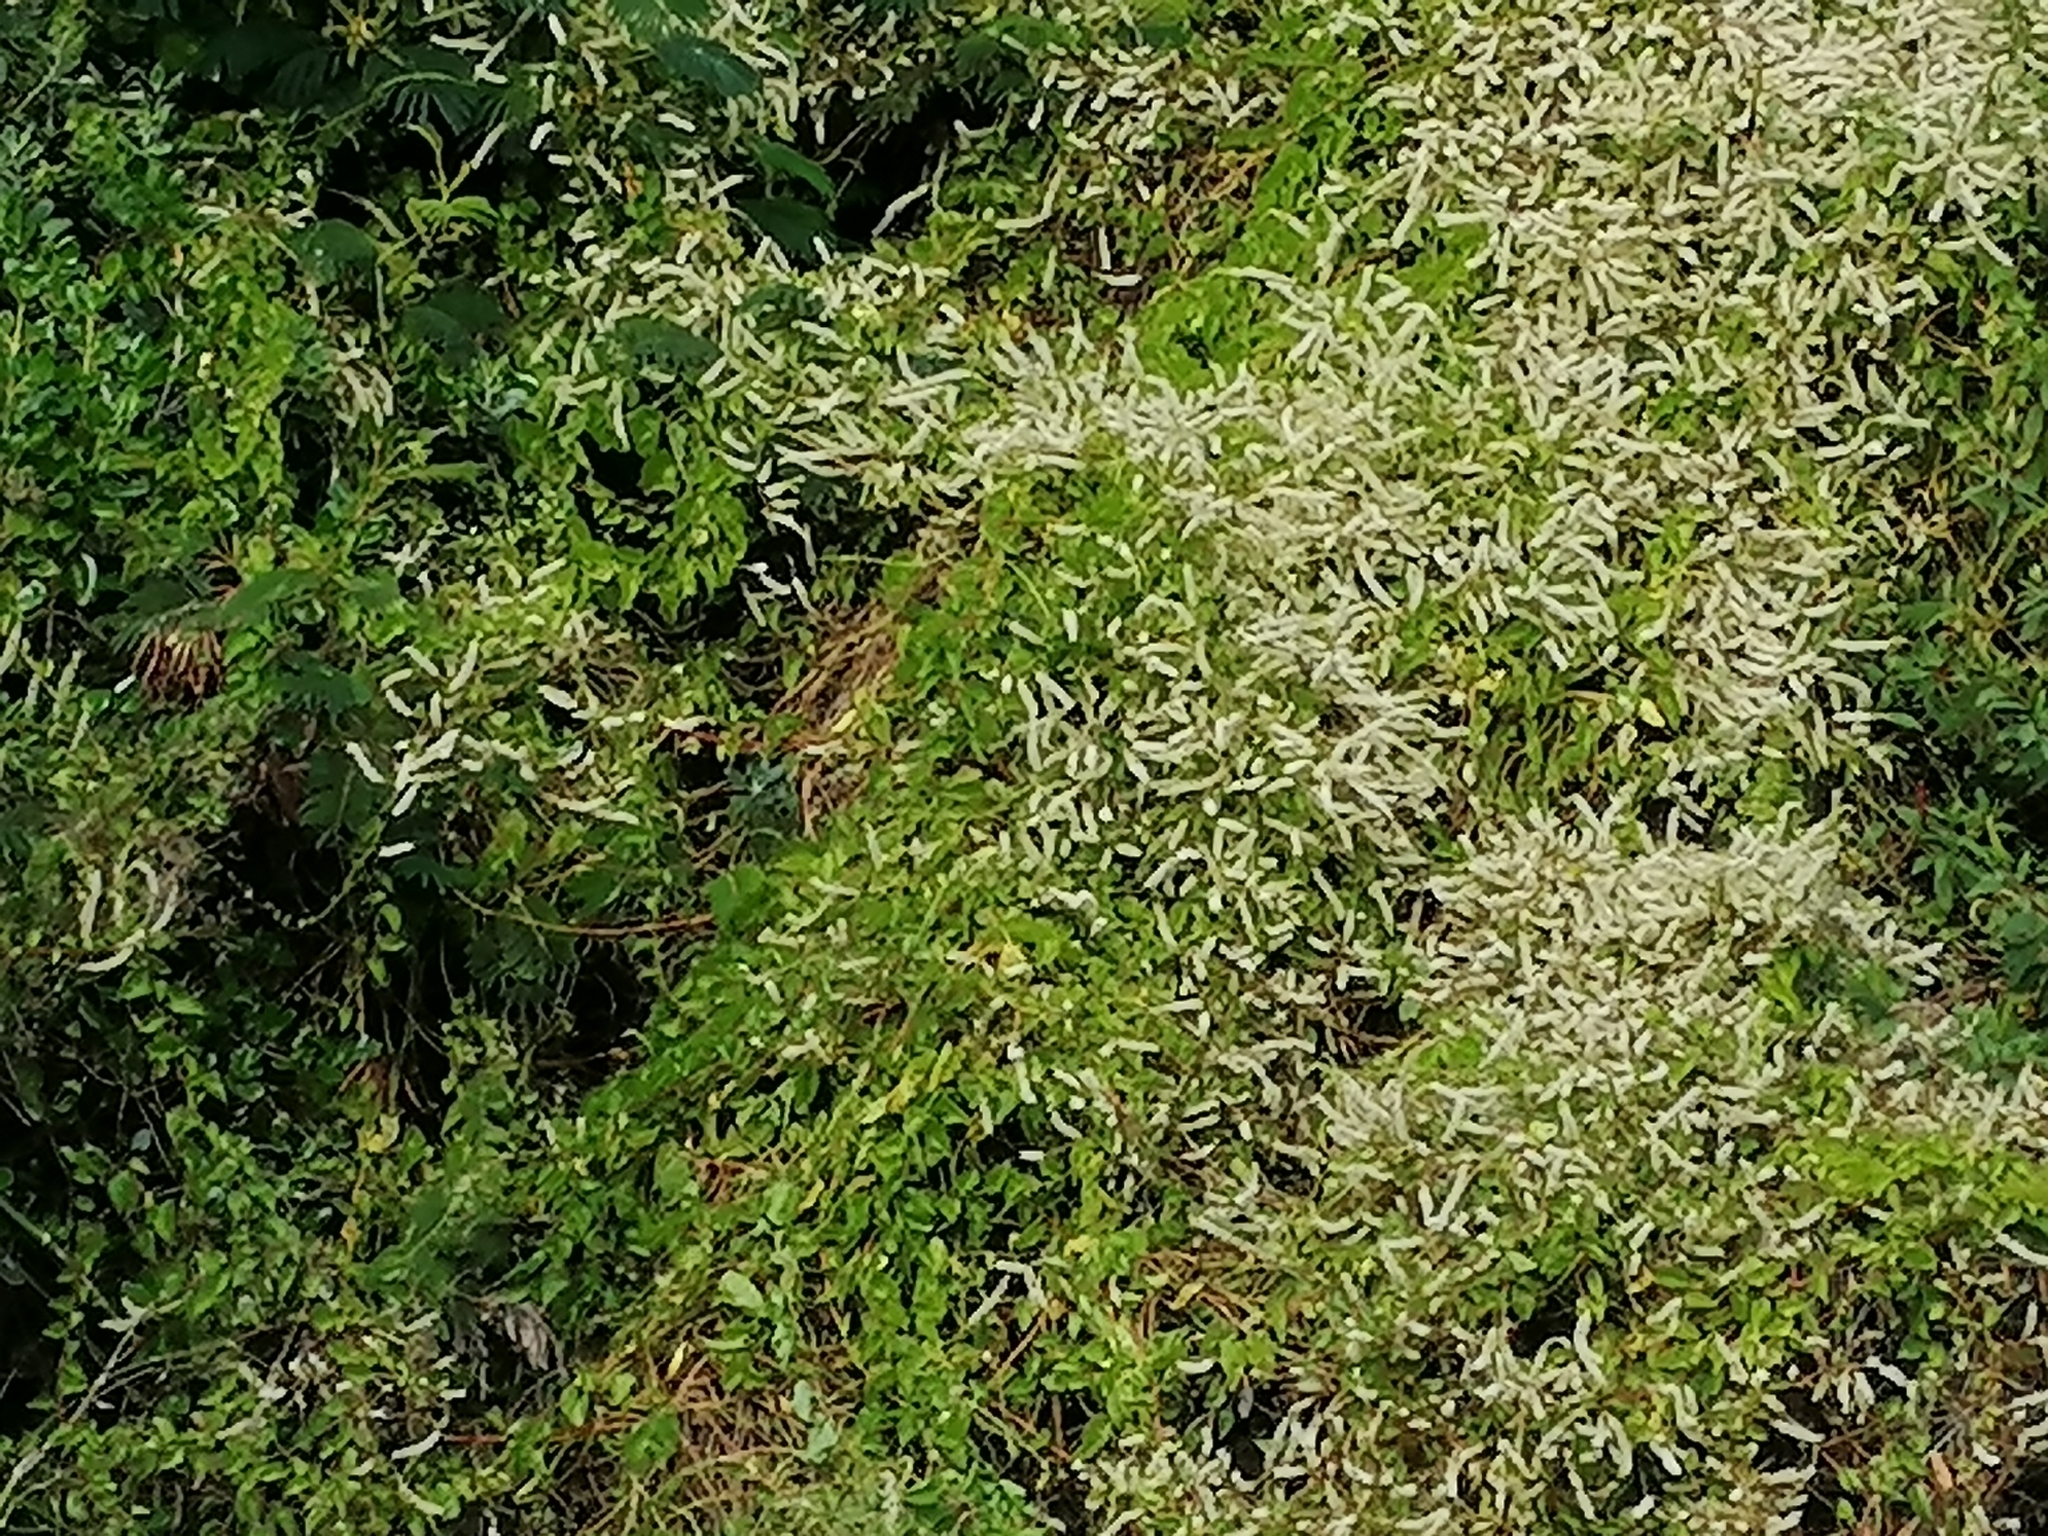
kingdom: Plantae
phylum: Tracheophyta
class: Magnoliopsida
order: Caryophyllales
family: Basellaceae
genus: Anredera
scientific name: Anredera cordifolia
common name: Heartleaf madeiravine
